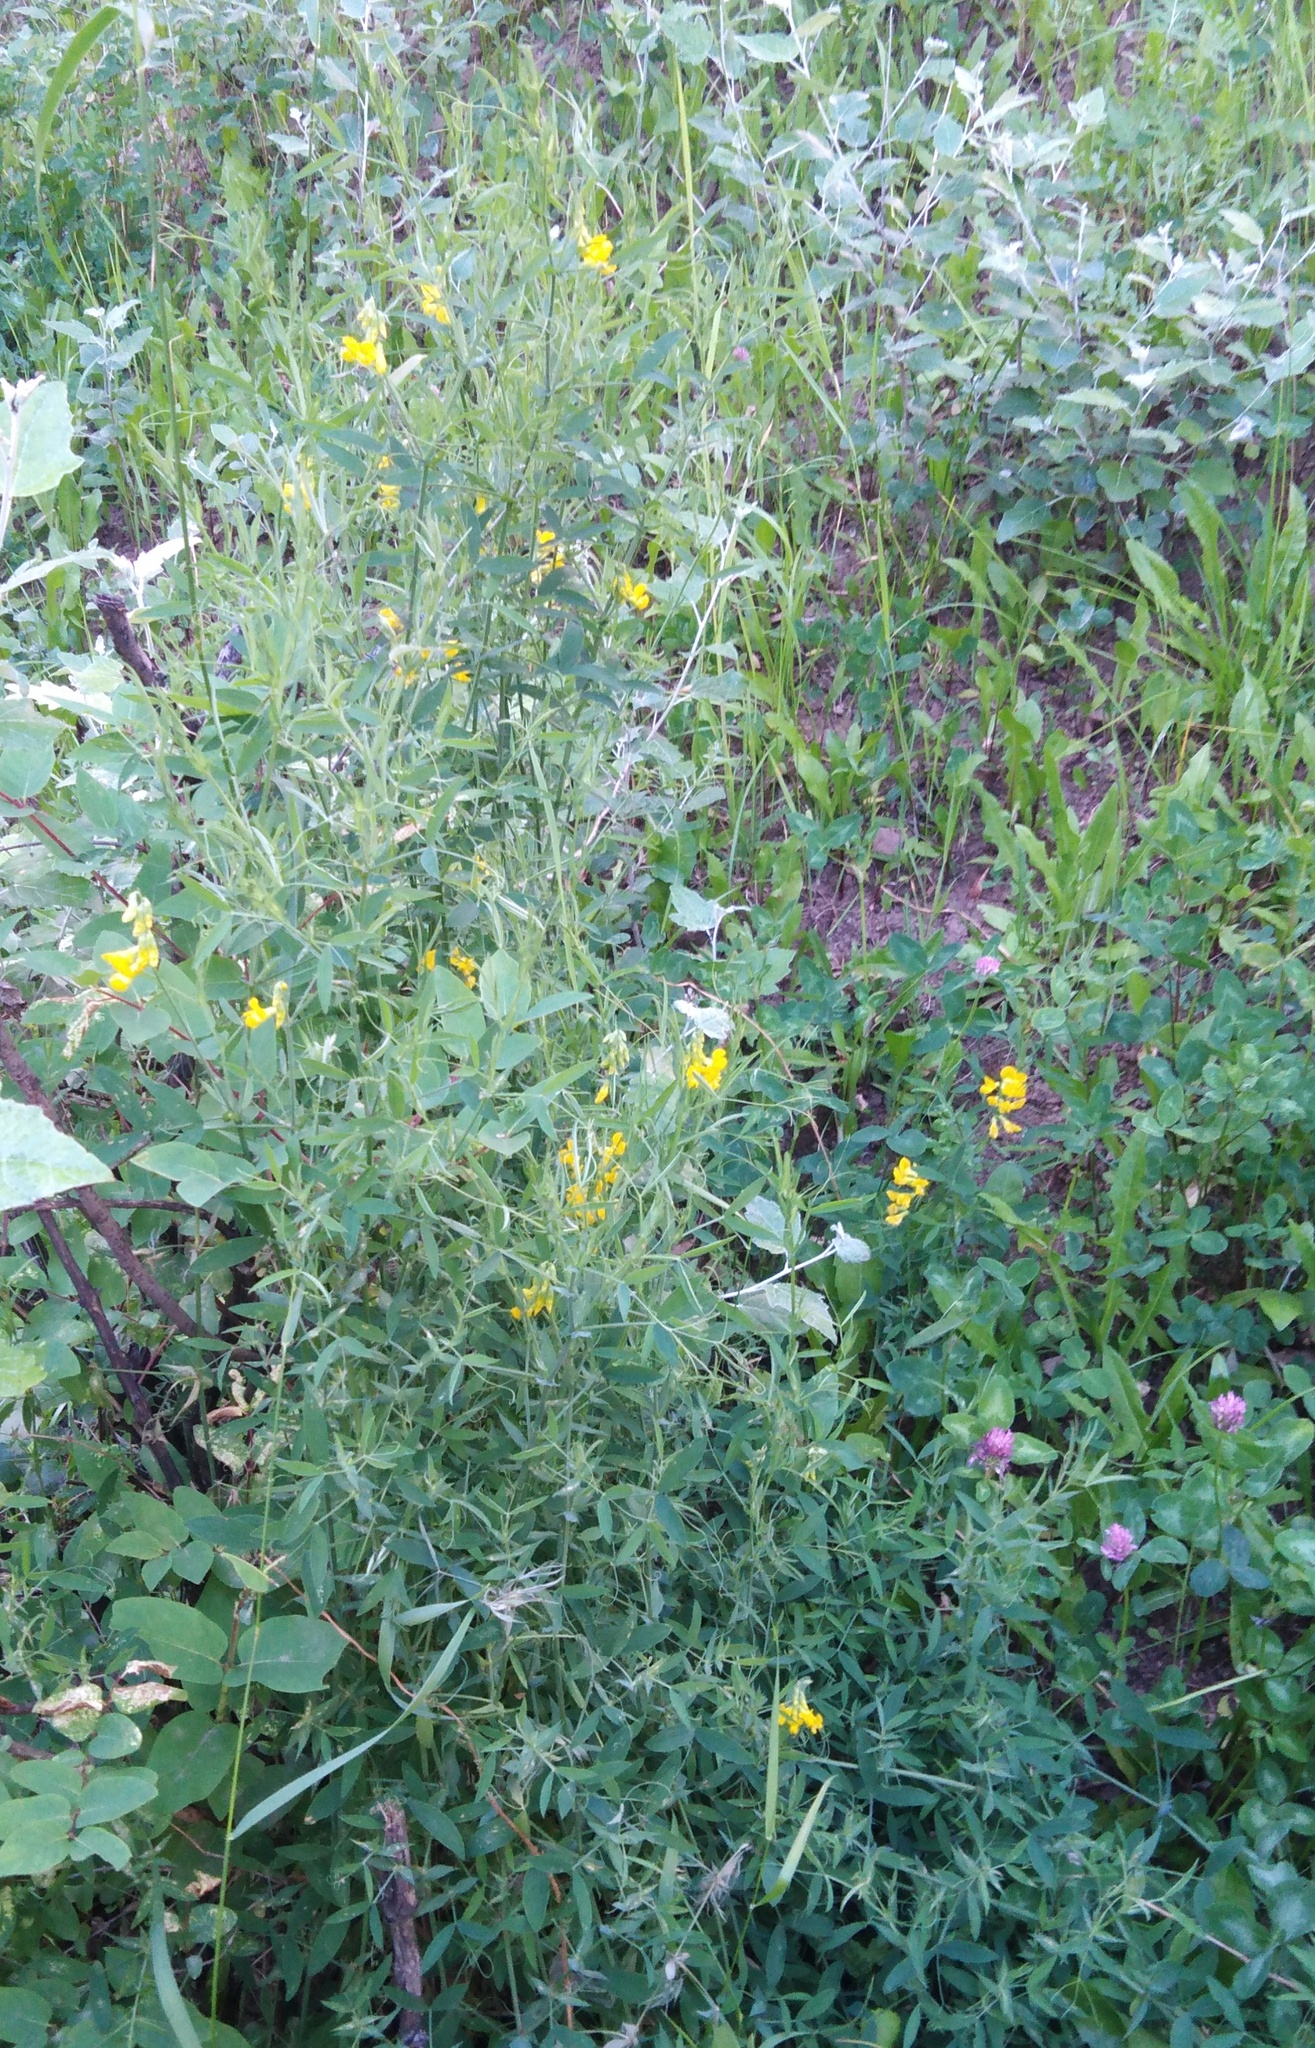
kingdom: Plantae
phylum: Tracheophyta
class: Magnoliopsida
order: Fabales
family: Fabaceae
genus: Lathyrus
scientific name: Lathyrus pratensis
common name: Meadow vetchling
